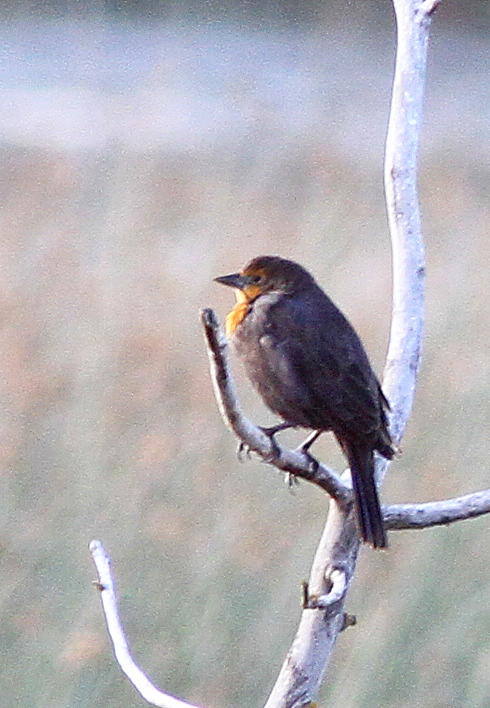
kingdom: Animalia
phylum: Chordata
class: Aves
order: Passeriformes
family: Icteridae
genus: Xanthocephalus
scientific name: Xanthocephalus xanthocephalus
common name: Yellow-headed blackbird
